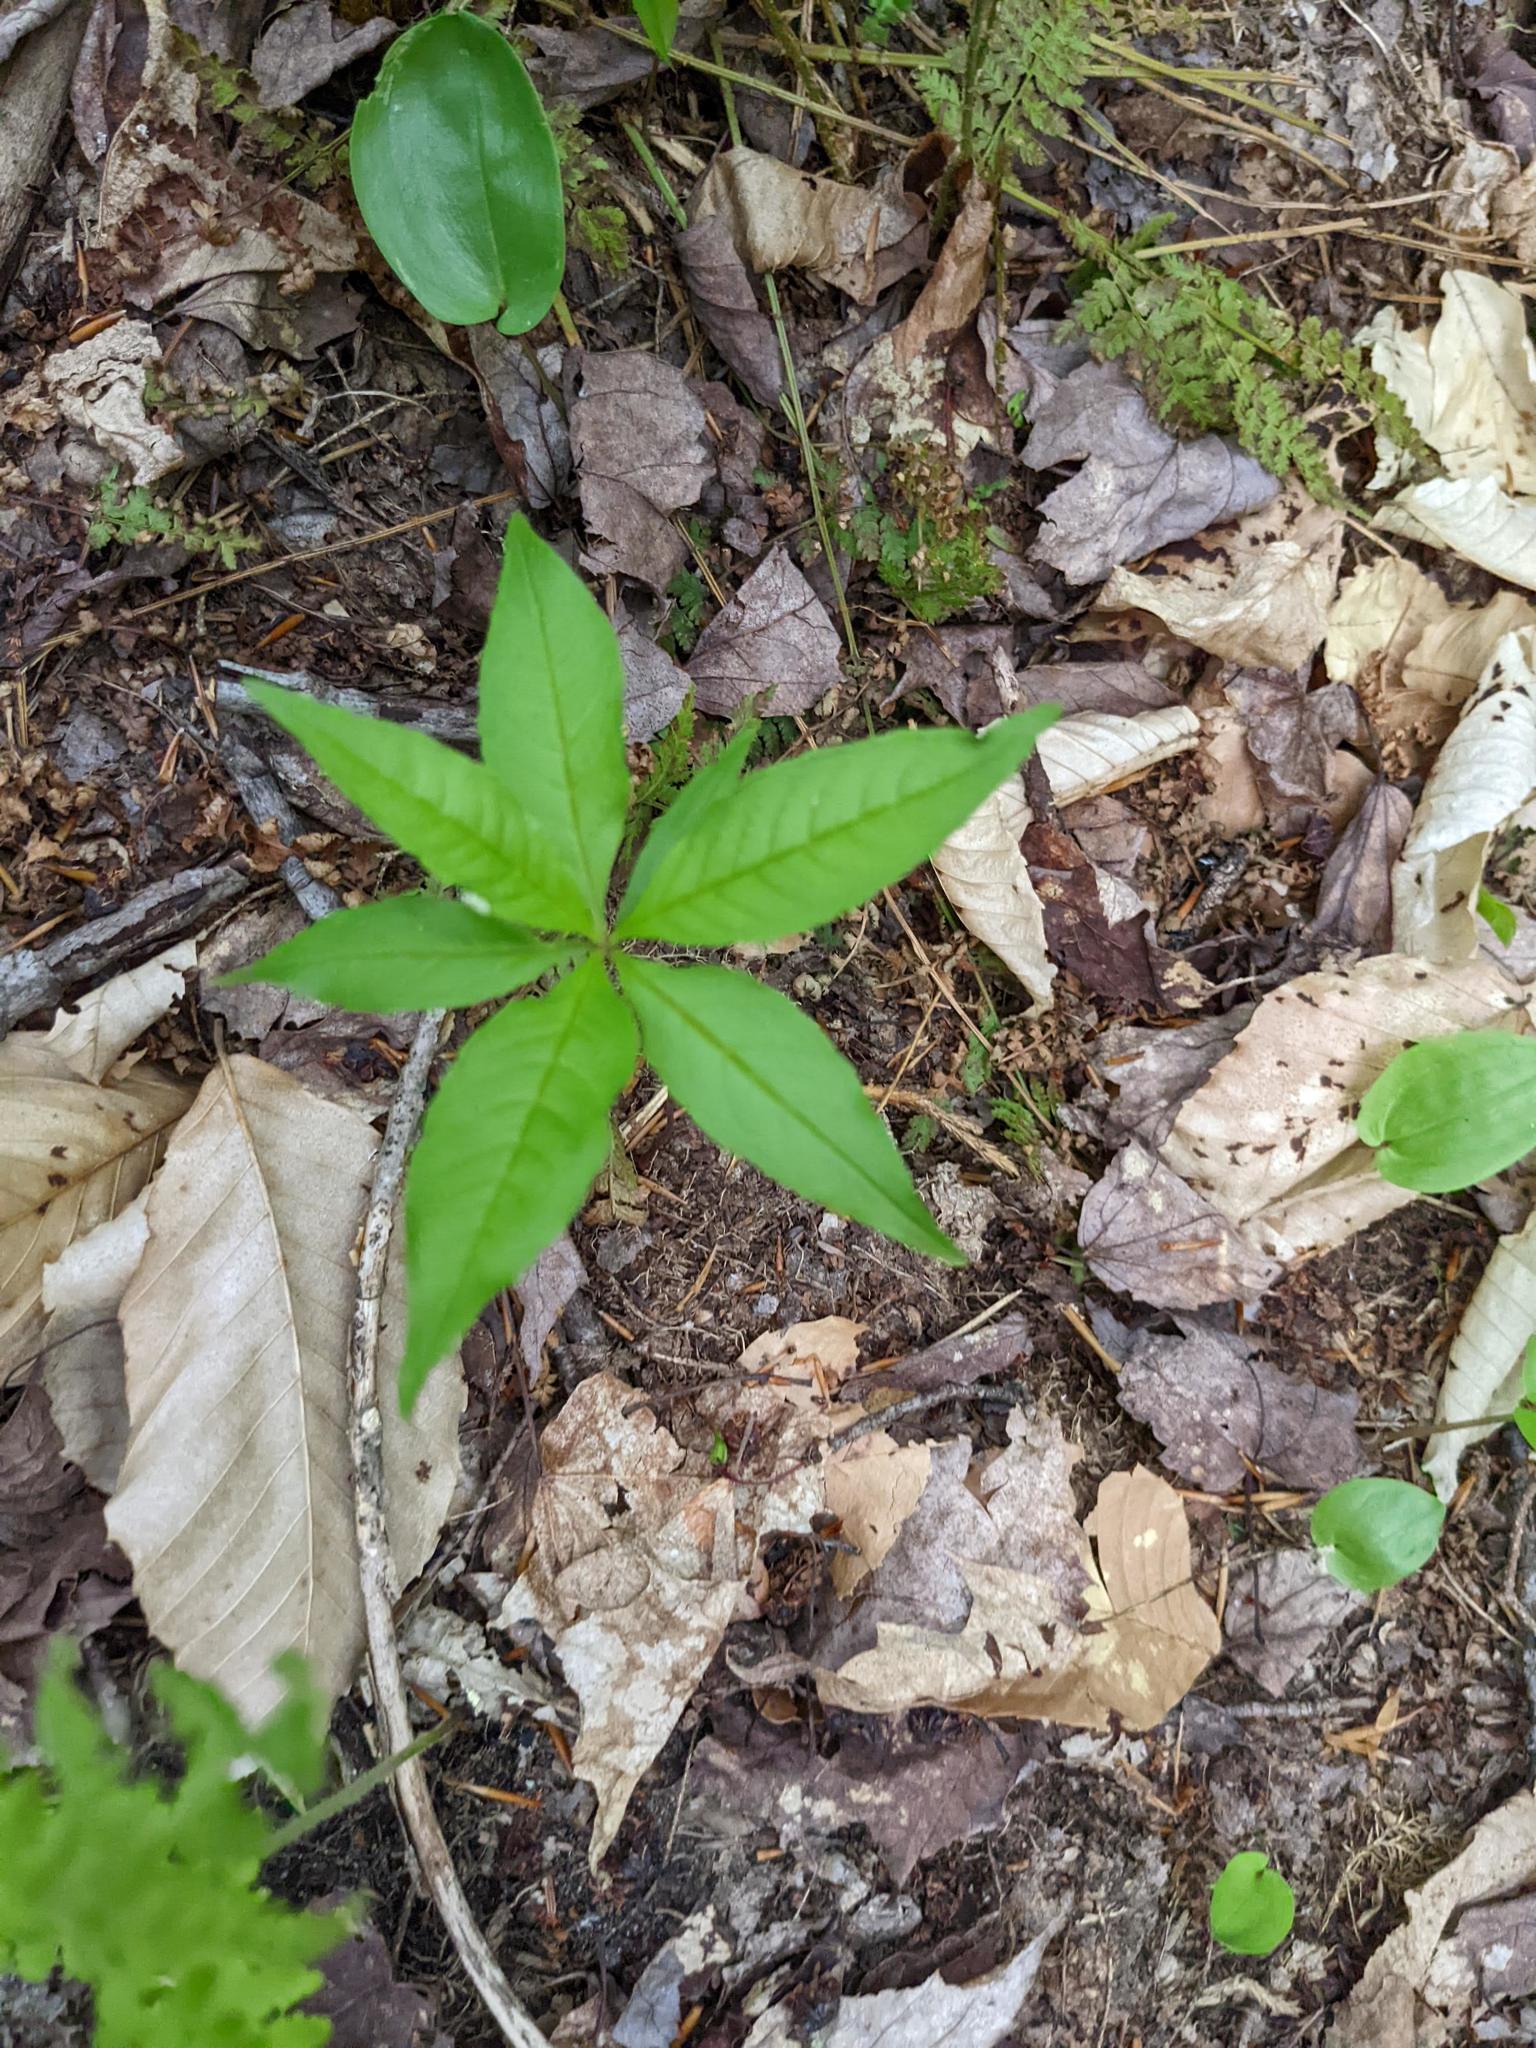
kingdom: Plantae
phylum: Tracheophyta
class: Magnoliopsida
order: Ericales
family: Primulaceae
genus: Lysimachia
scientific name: Lysimachia borealis
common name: American starflower
